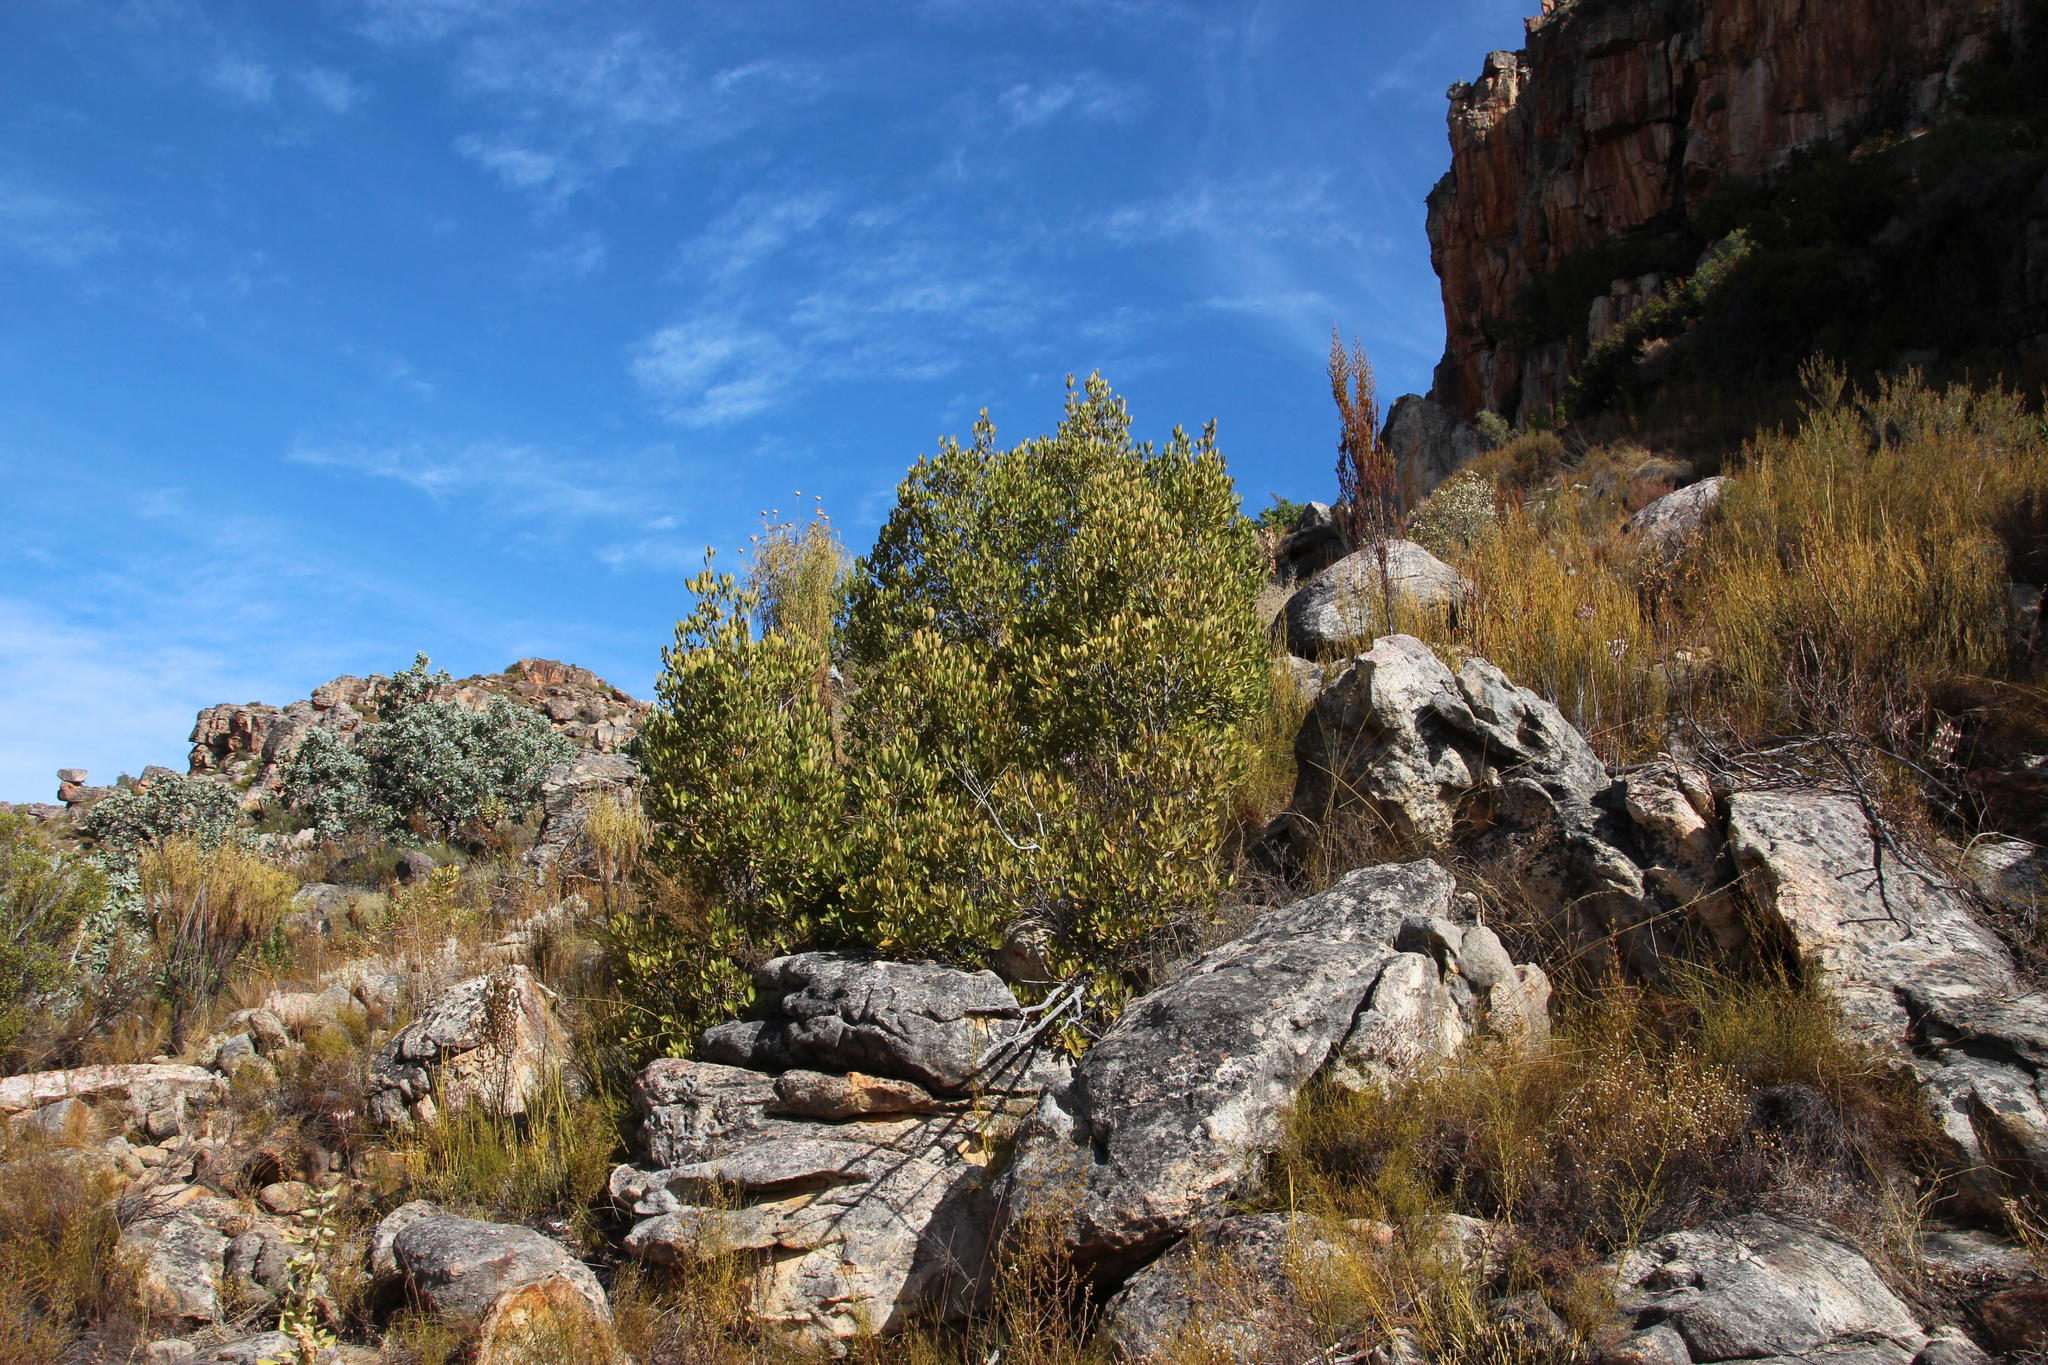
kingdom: Plantae
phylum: Tracheophyta
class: Magnoliopsida
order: Celastrales
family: Celastraceae
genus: Gymnosporia
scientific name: Gymnosporia laurina
